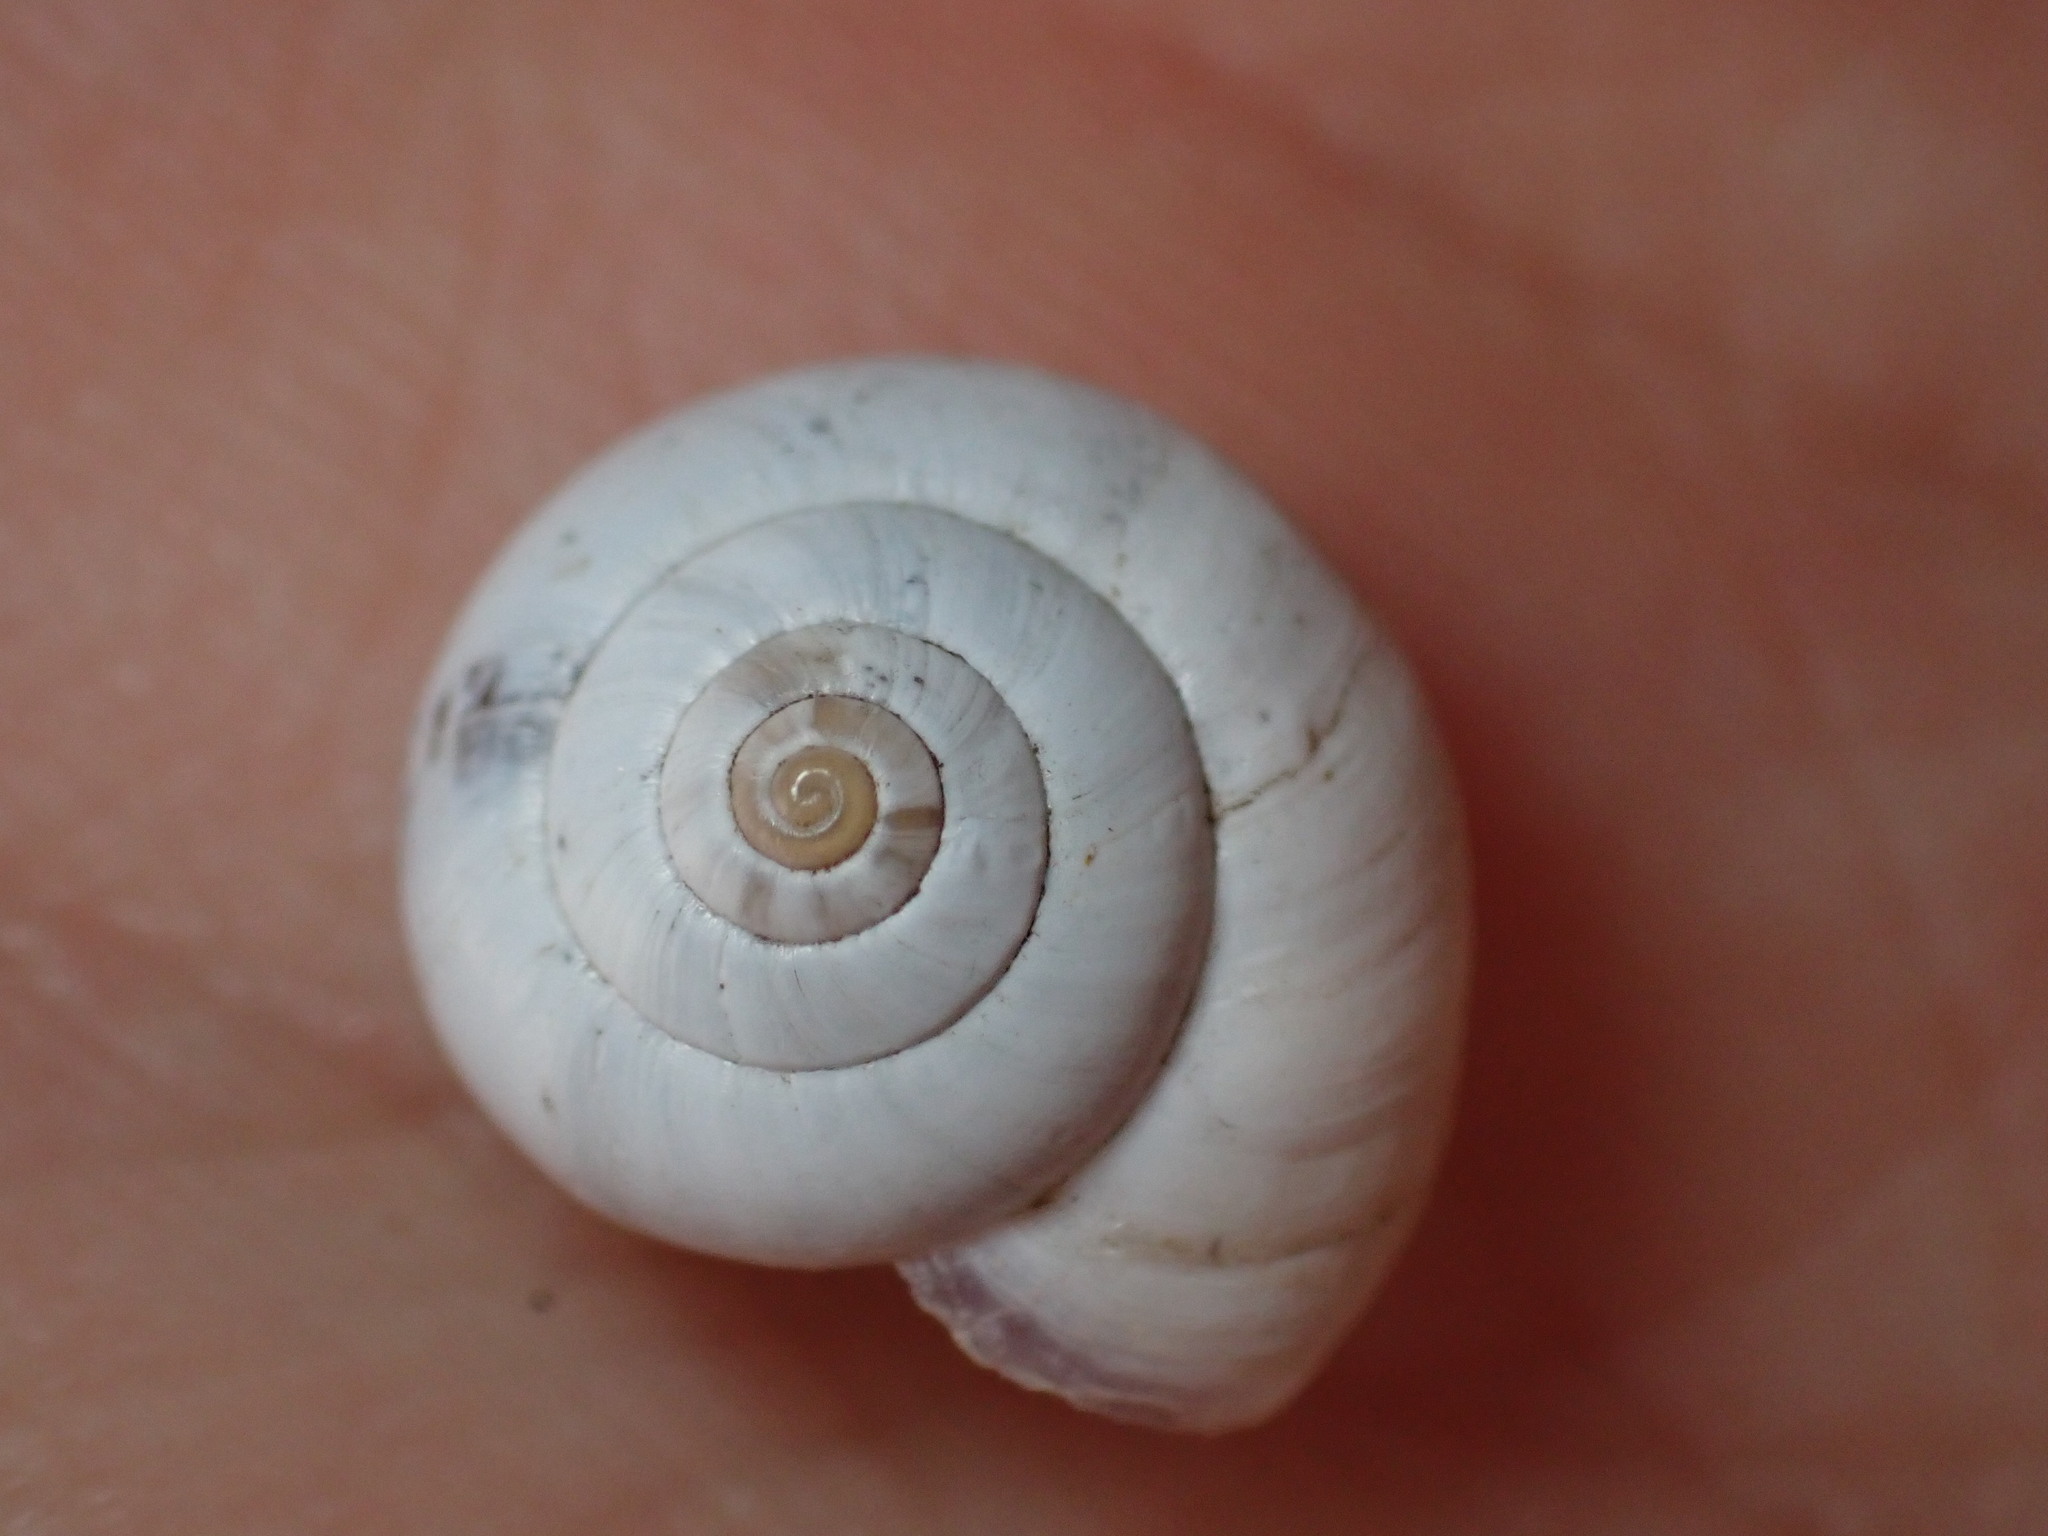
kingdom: Animalia
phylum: Mollusca
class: Gastropoda
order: Stylommatophora
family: Geomitridae
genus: Xeropicta
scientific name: Xeropicta derbentina
